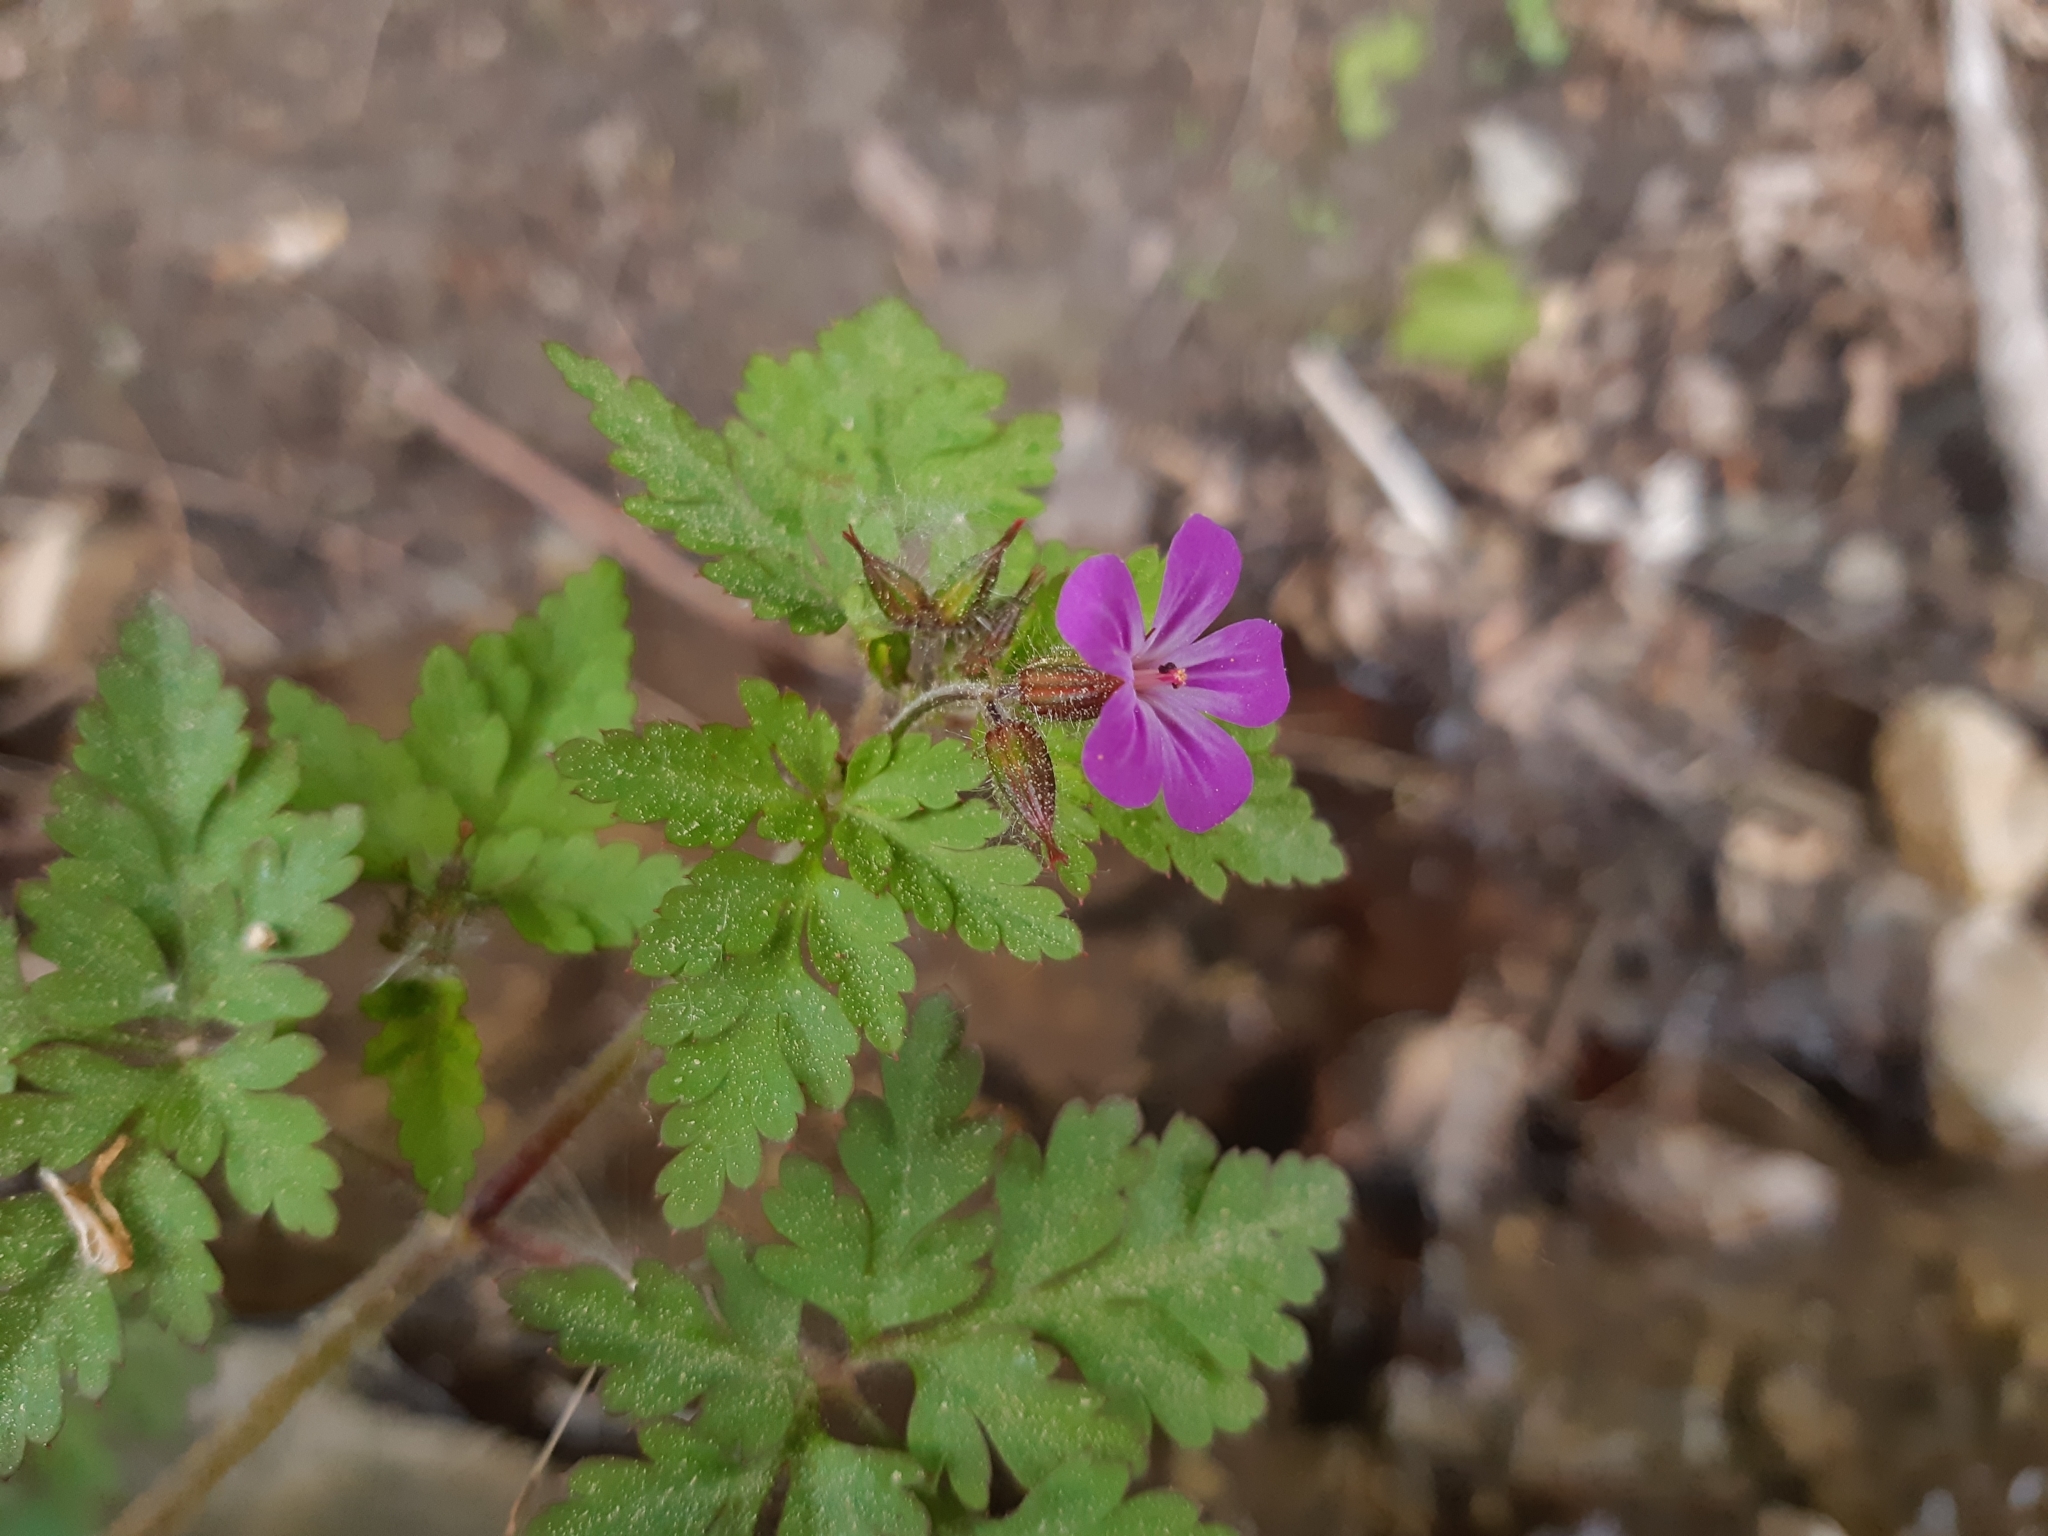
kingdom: Plantae
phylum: Tracheophyta
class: Magnoliopsida
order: Geraniales
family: Geraniaceae
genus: Geranium
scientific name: Geranium robertianum
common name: Herb-robert
